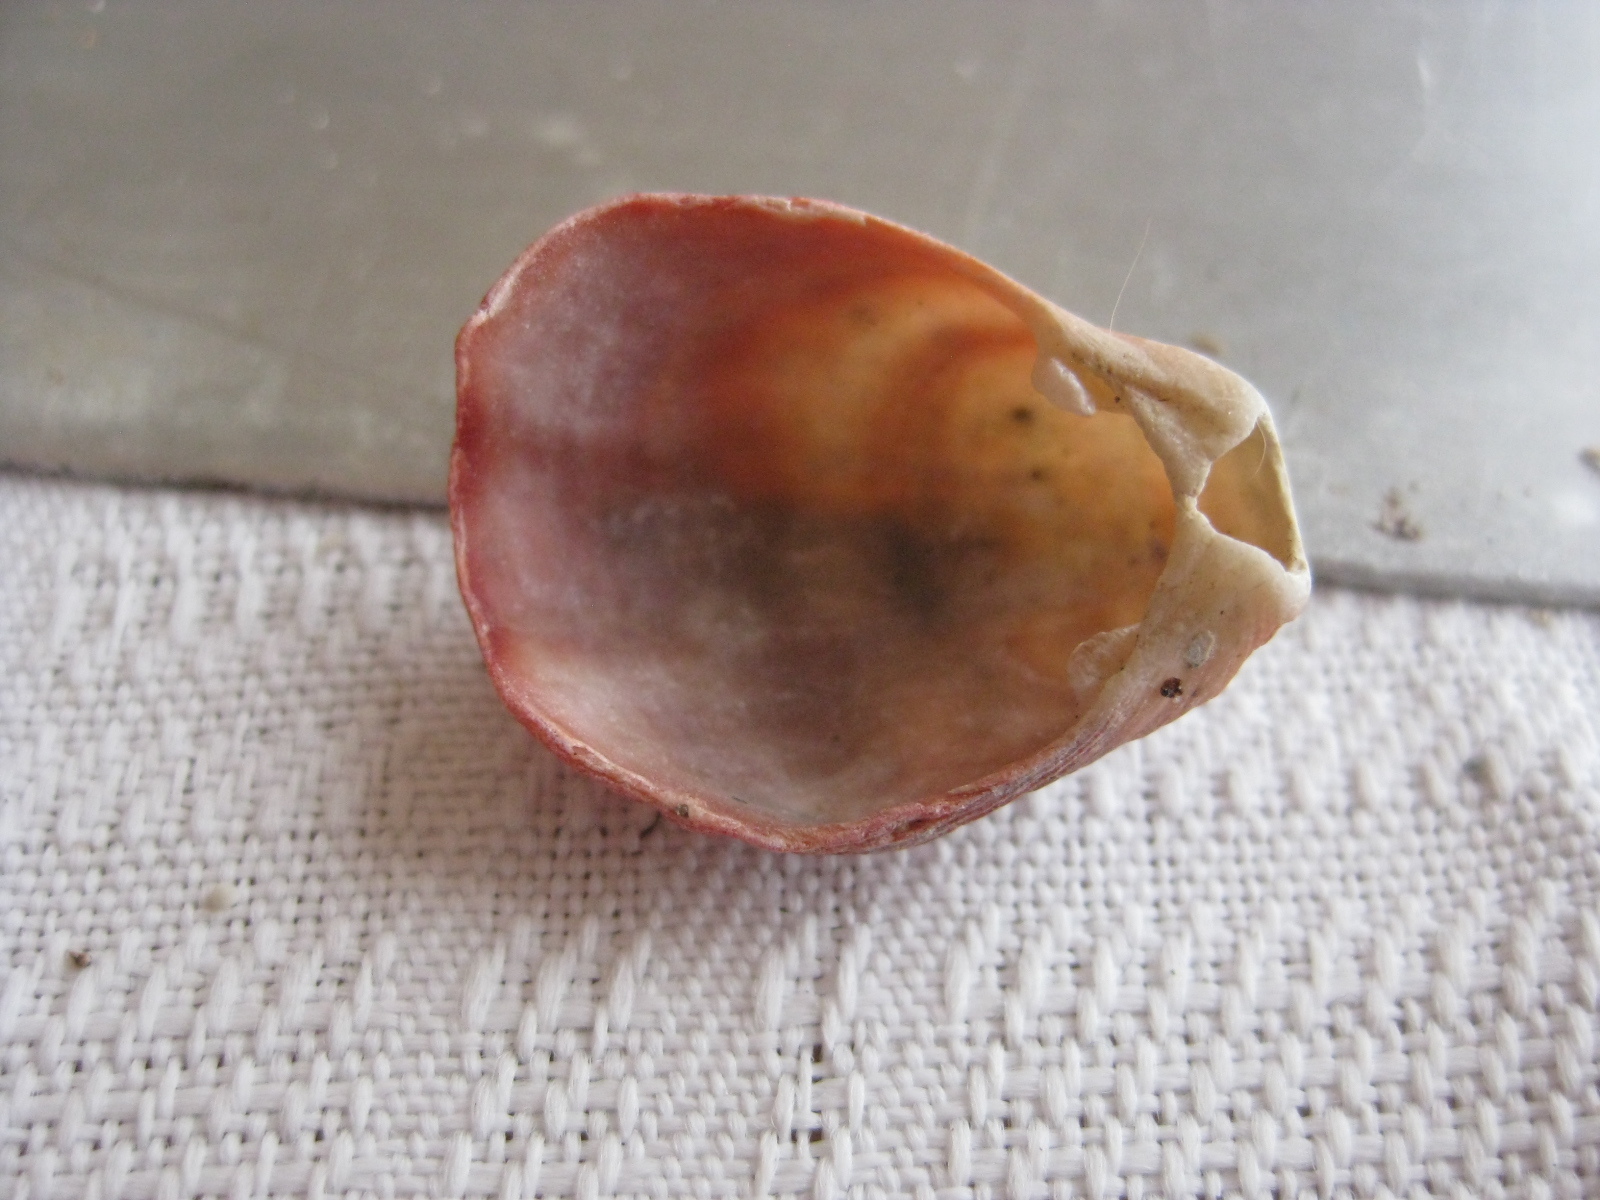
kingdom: Animalia
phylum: Brachiopoda
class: Rhynchonellata
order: Terebratulida
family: Terebratellidae
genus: Calloria
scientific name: Calloria inconspicua
